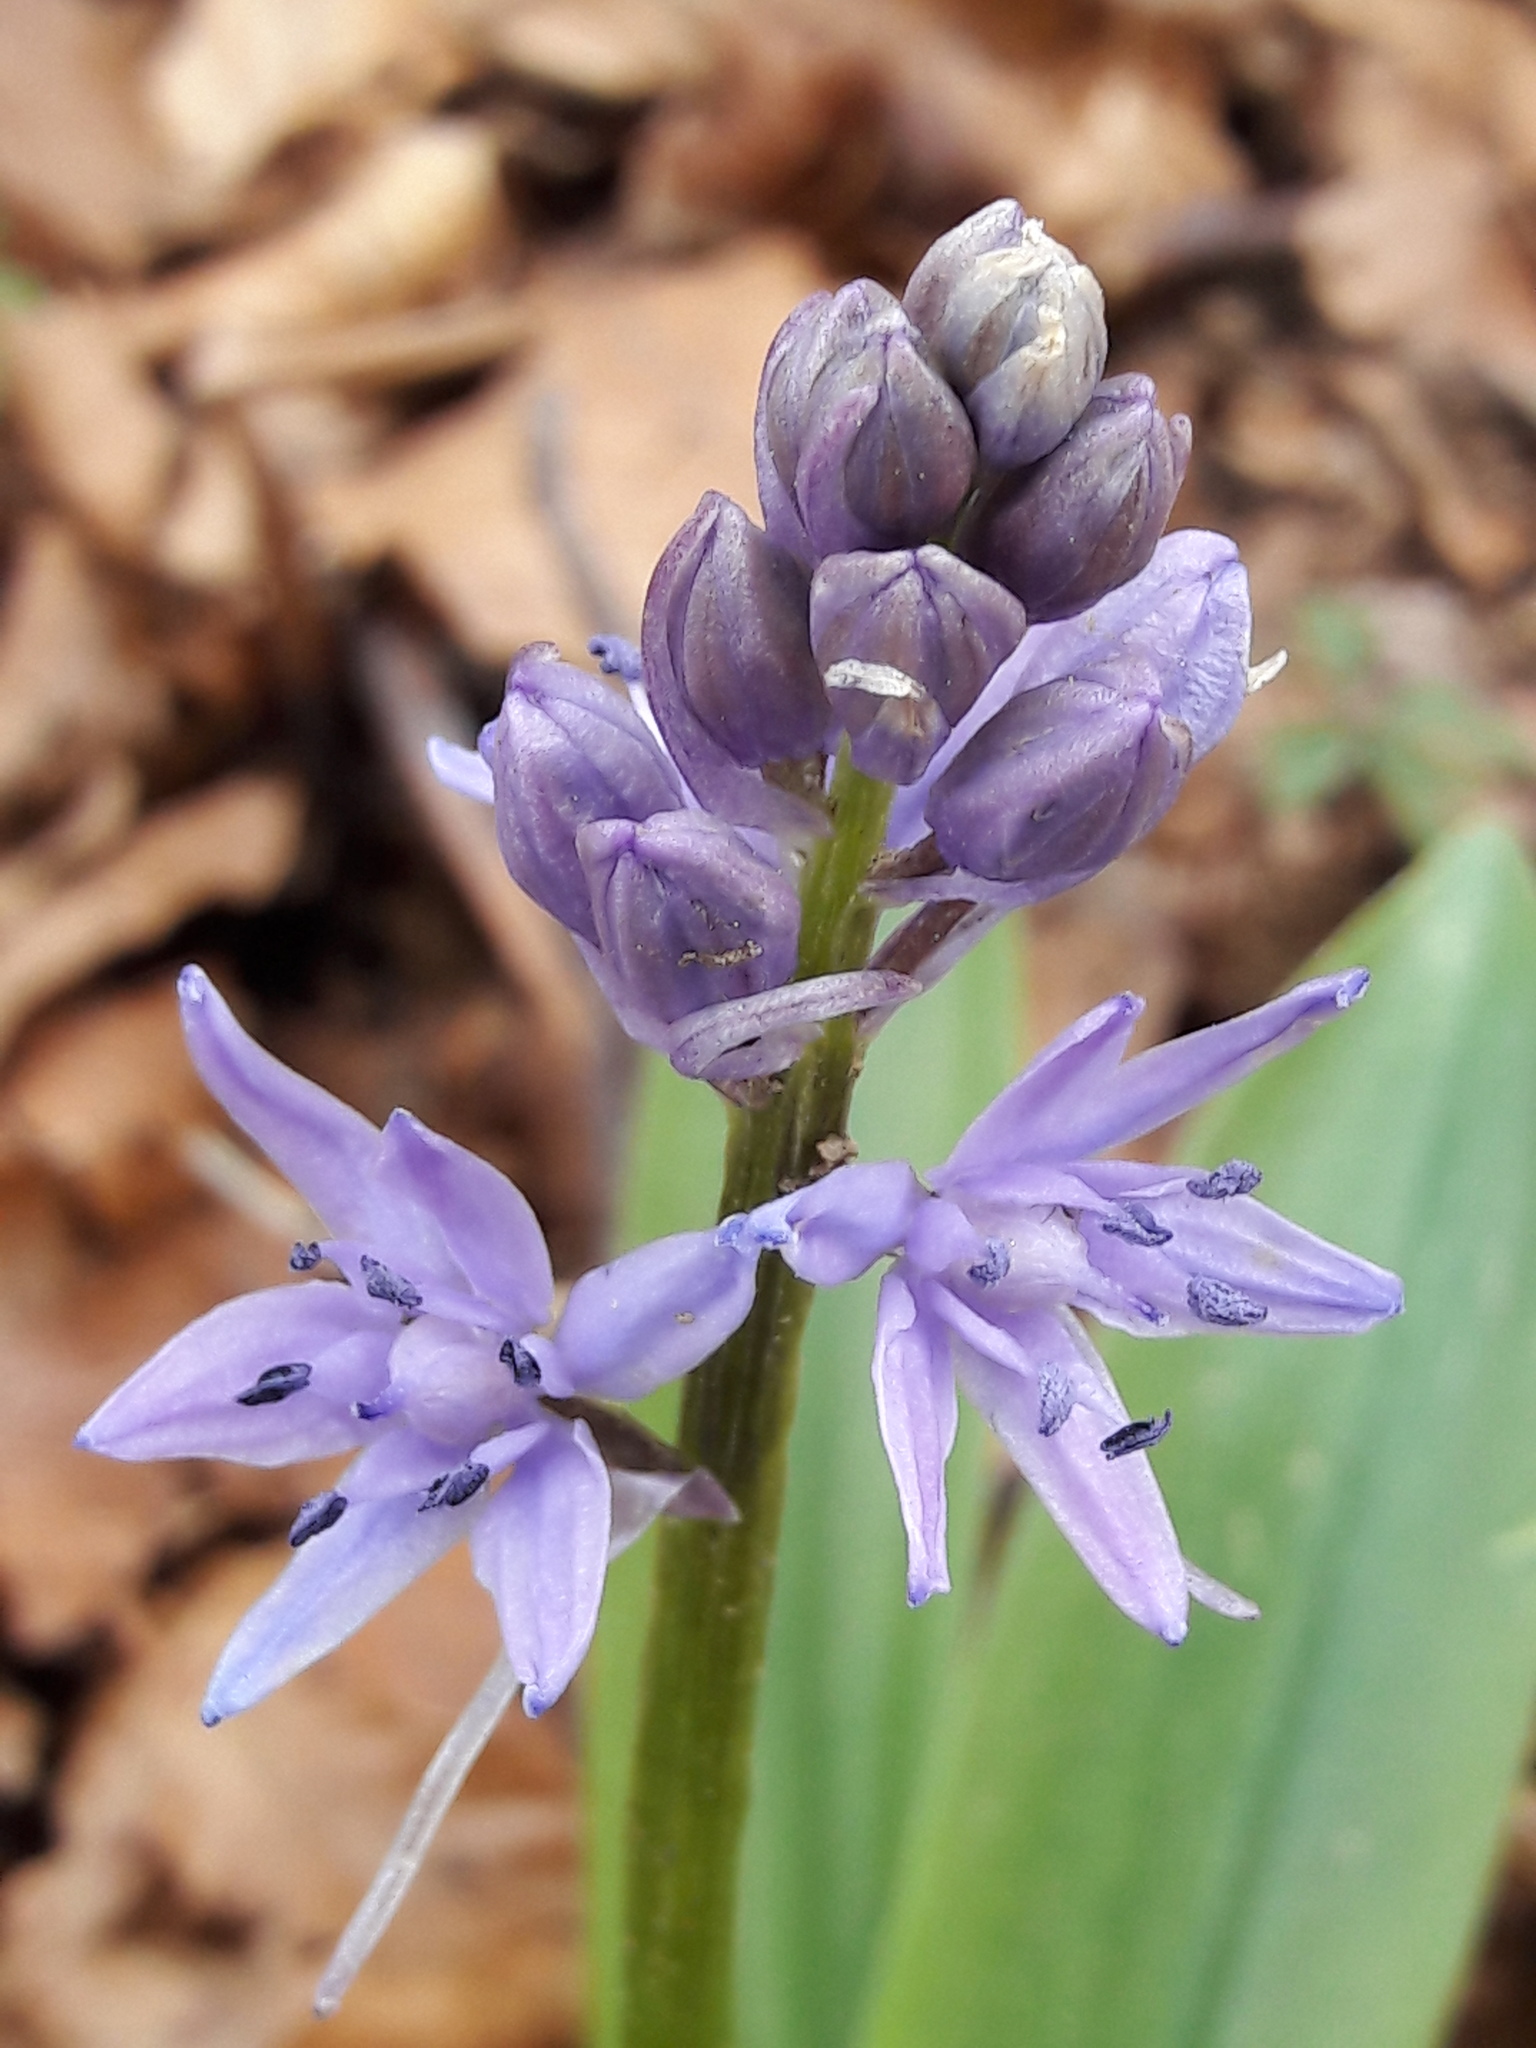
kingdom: Plantae
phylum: Tracheophyta
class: Liliopsida
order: Asparagales
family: Asparagaceae
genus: Scilla
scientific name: Scilla lilio-hyacinthus
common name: Pyrenean squill
